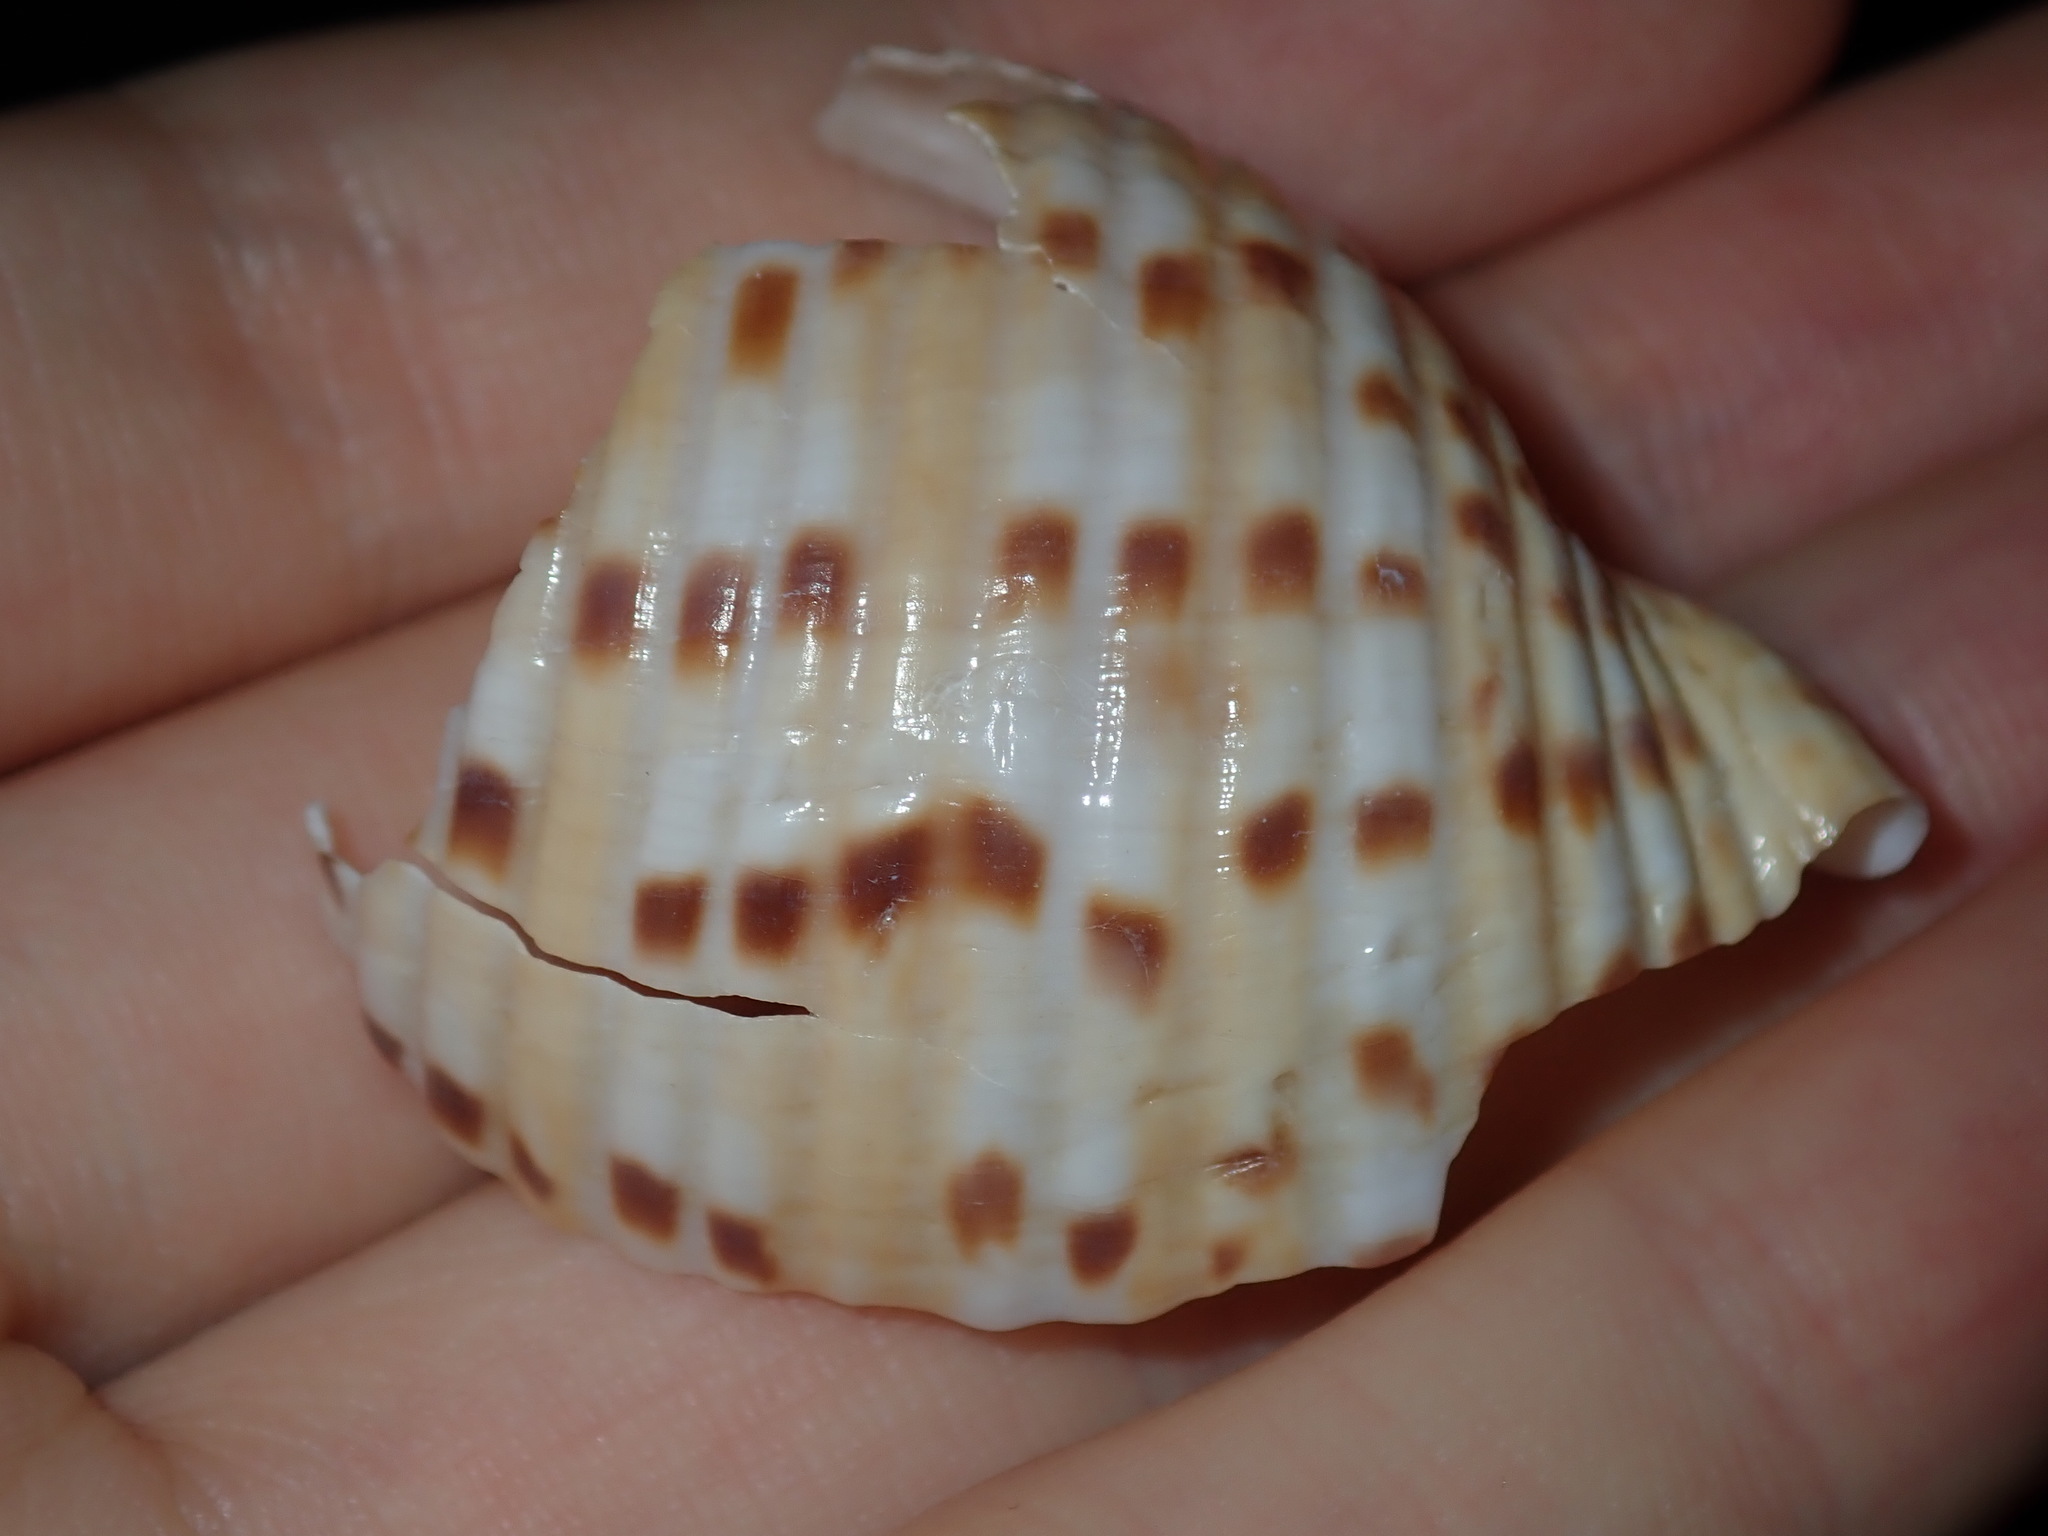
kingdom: Animalia
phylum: Mollusca
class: Gastropoda
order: Littorinimorpha
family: Tonnidae
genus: Tonna
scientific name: Tonna tankervillii
